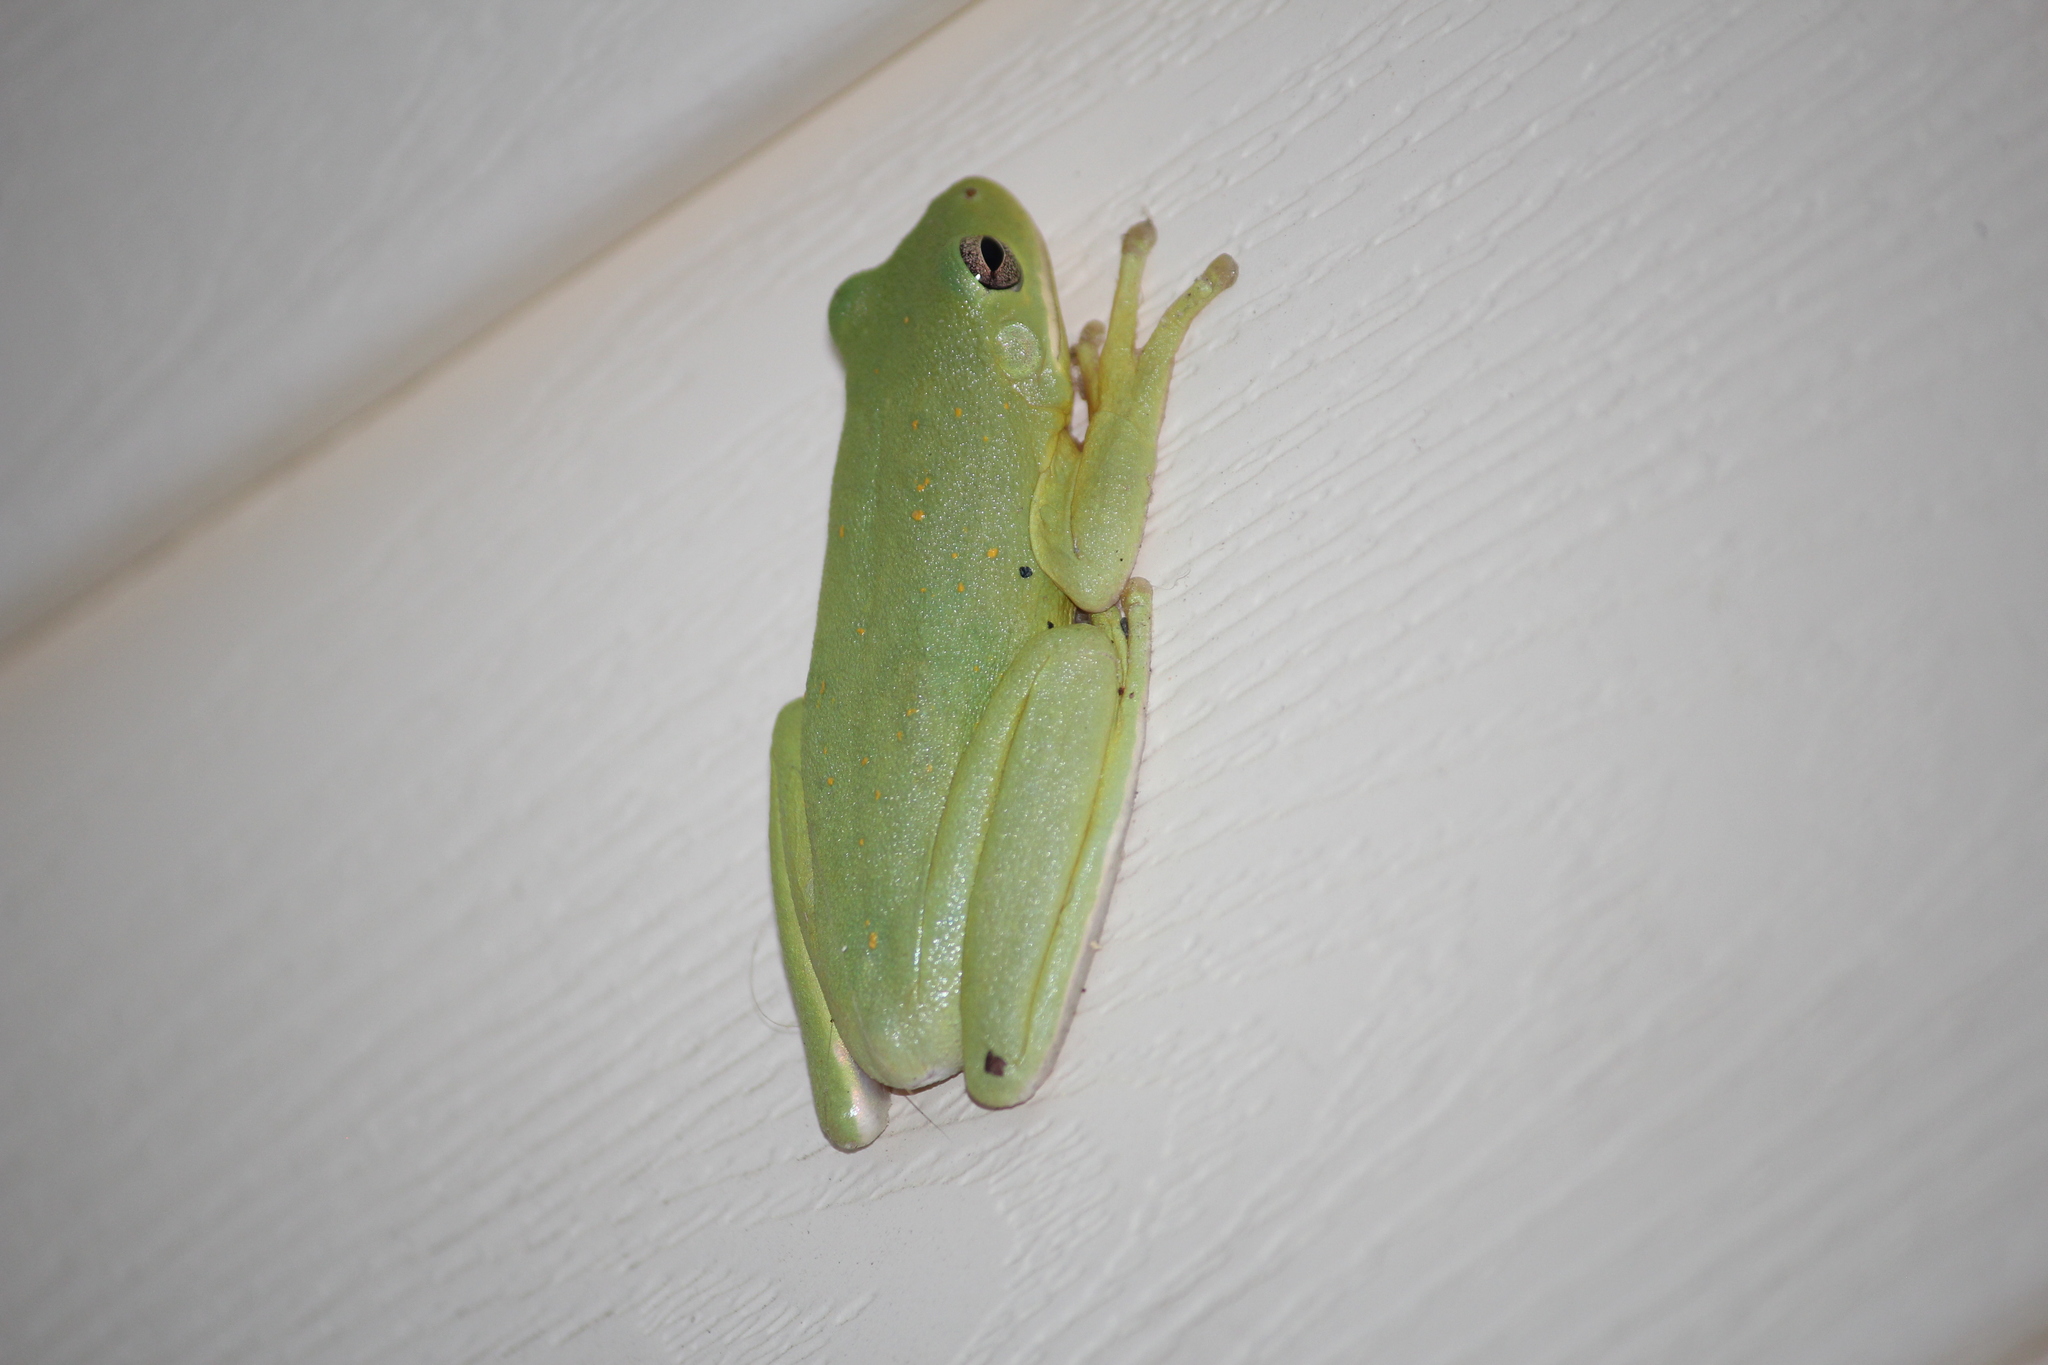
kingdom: Animalia
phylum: Chordata
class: Amphibia
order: Anura
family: Hylidae
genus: Dryophytes
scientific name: Dryophytes cinereus
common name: Green treefrog
